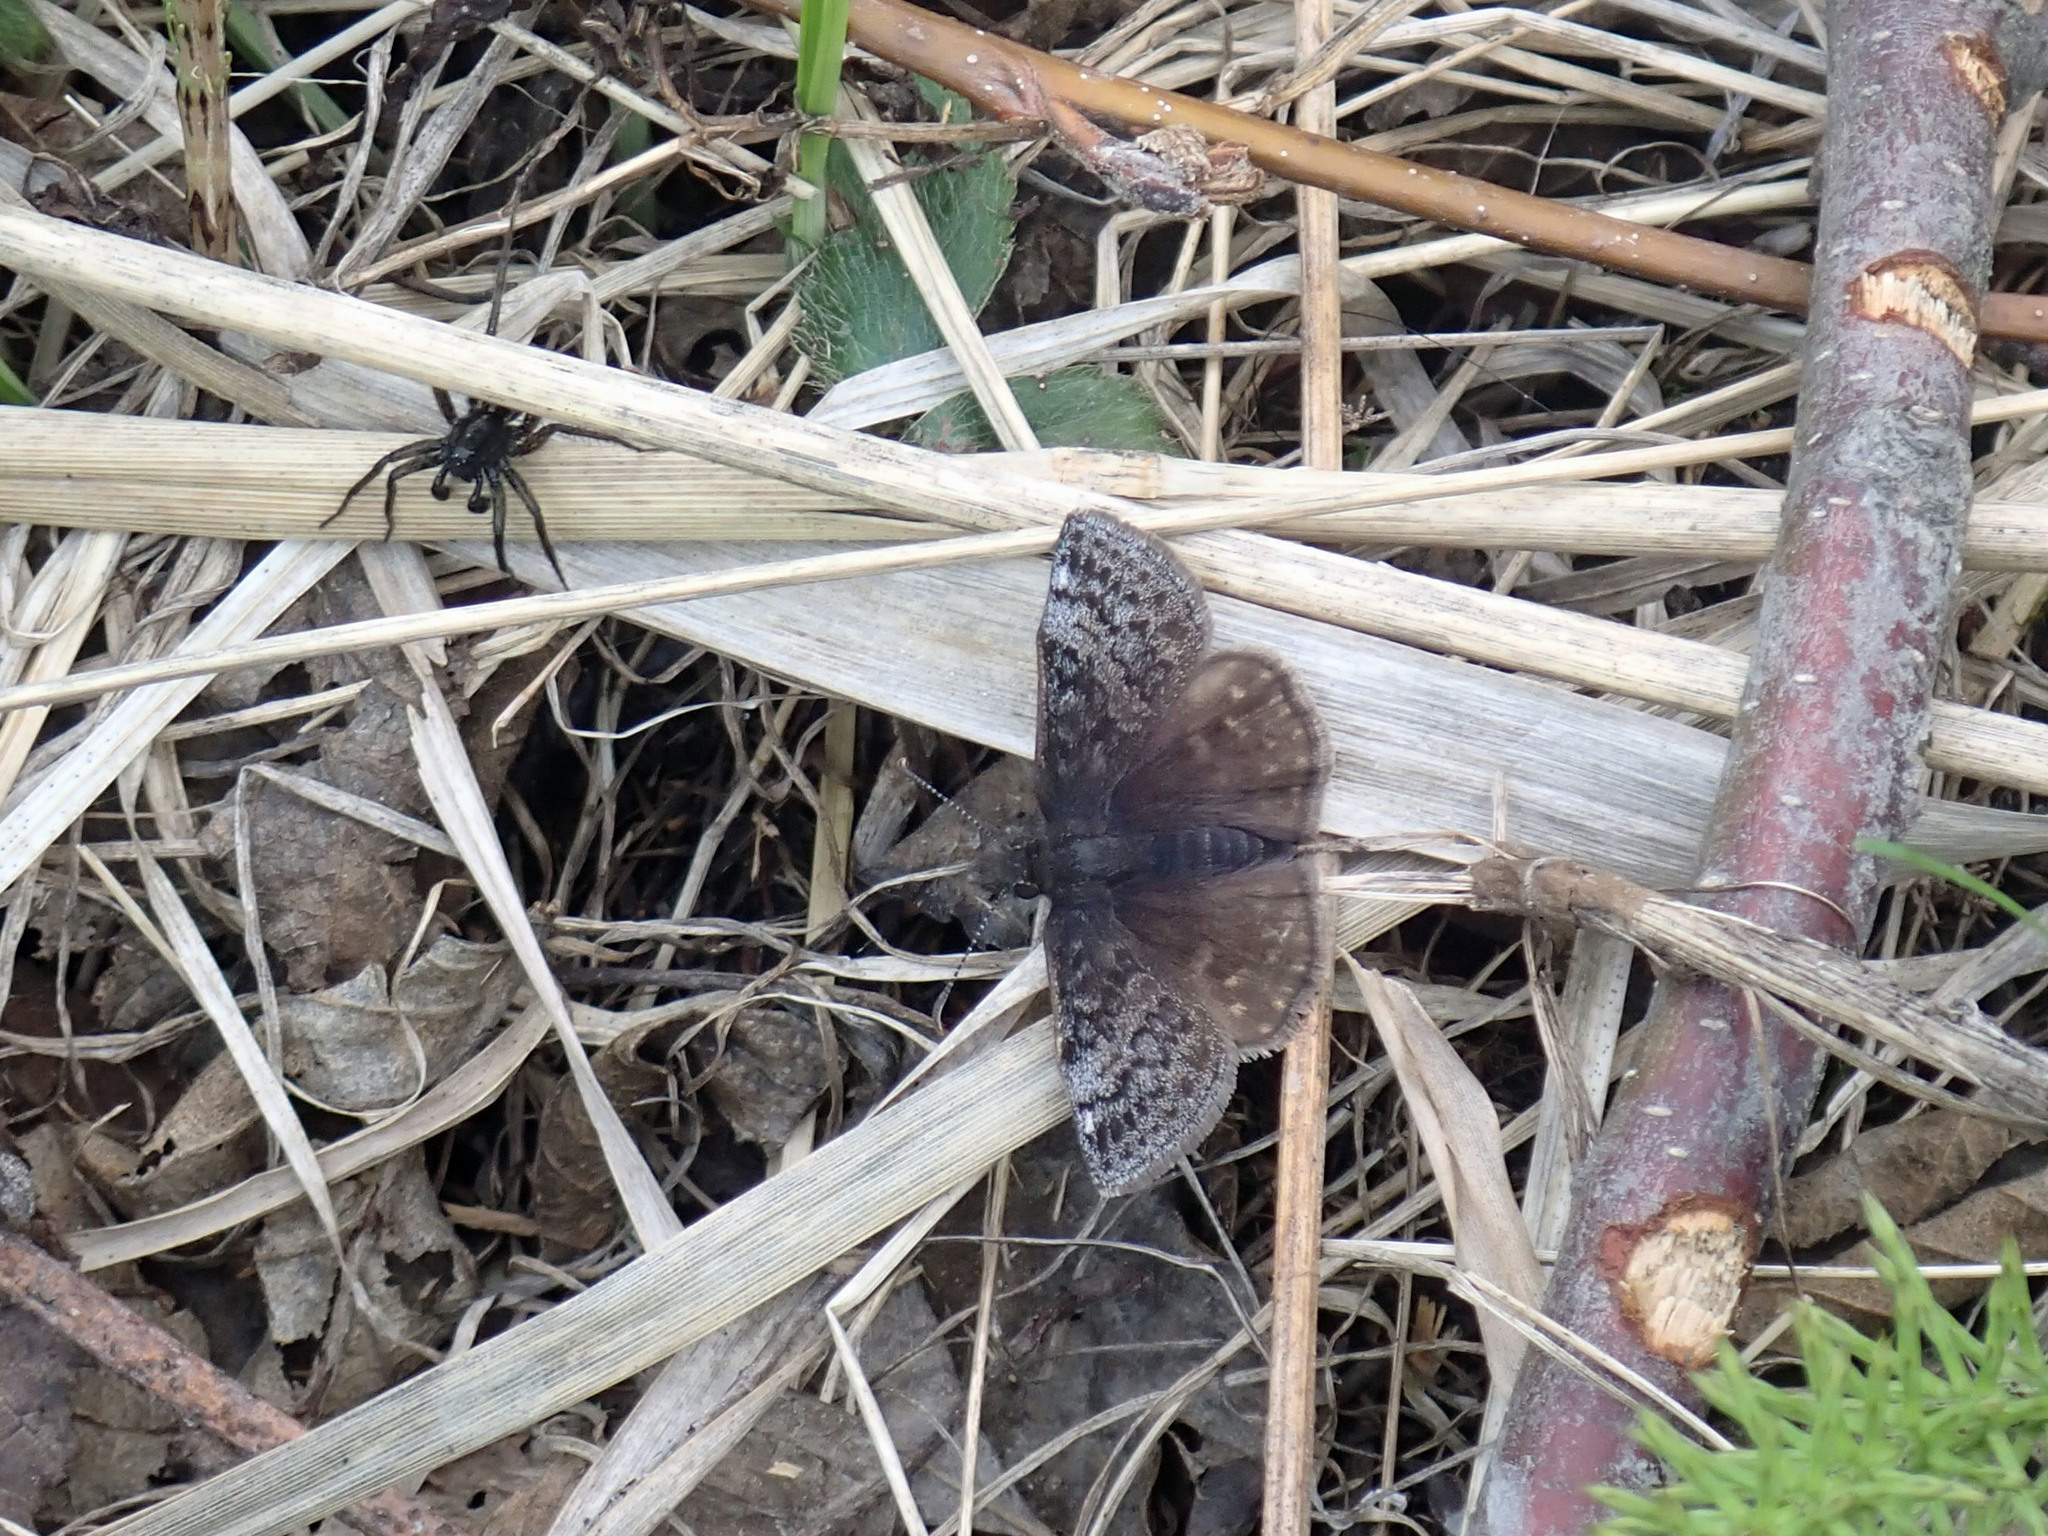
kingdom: Animalia
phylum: Arthropoda
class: Insecta
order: Lepidoptera
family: Hesperiidae
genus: Erynnis
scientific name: Erynnis icelus
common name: Dreamy duskywing
